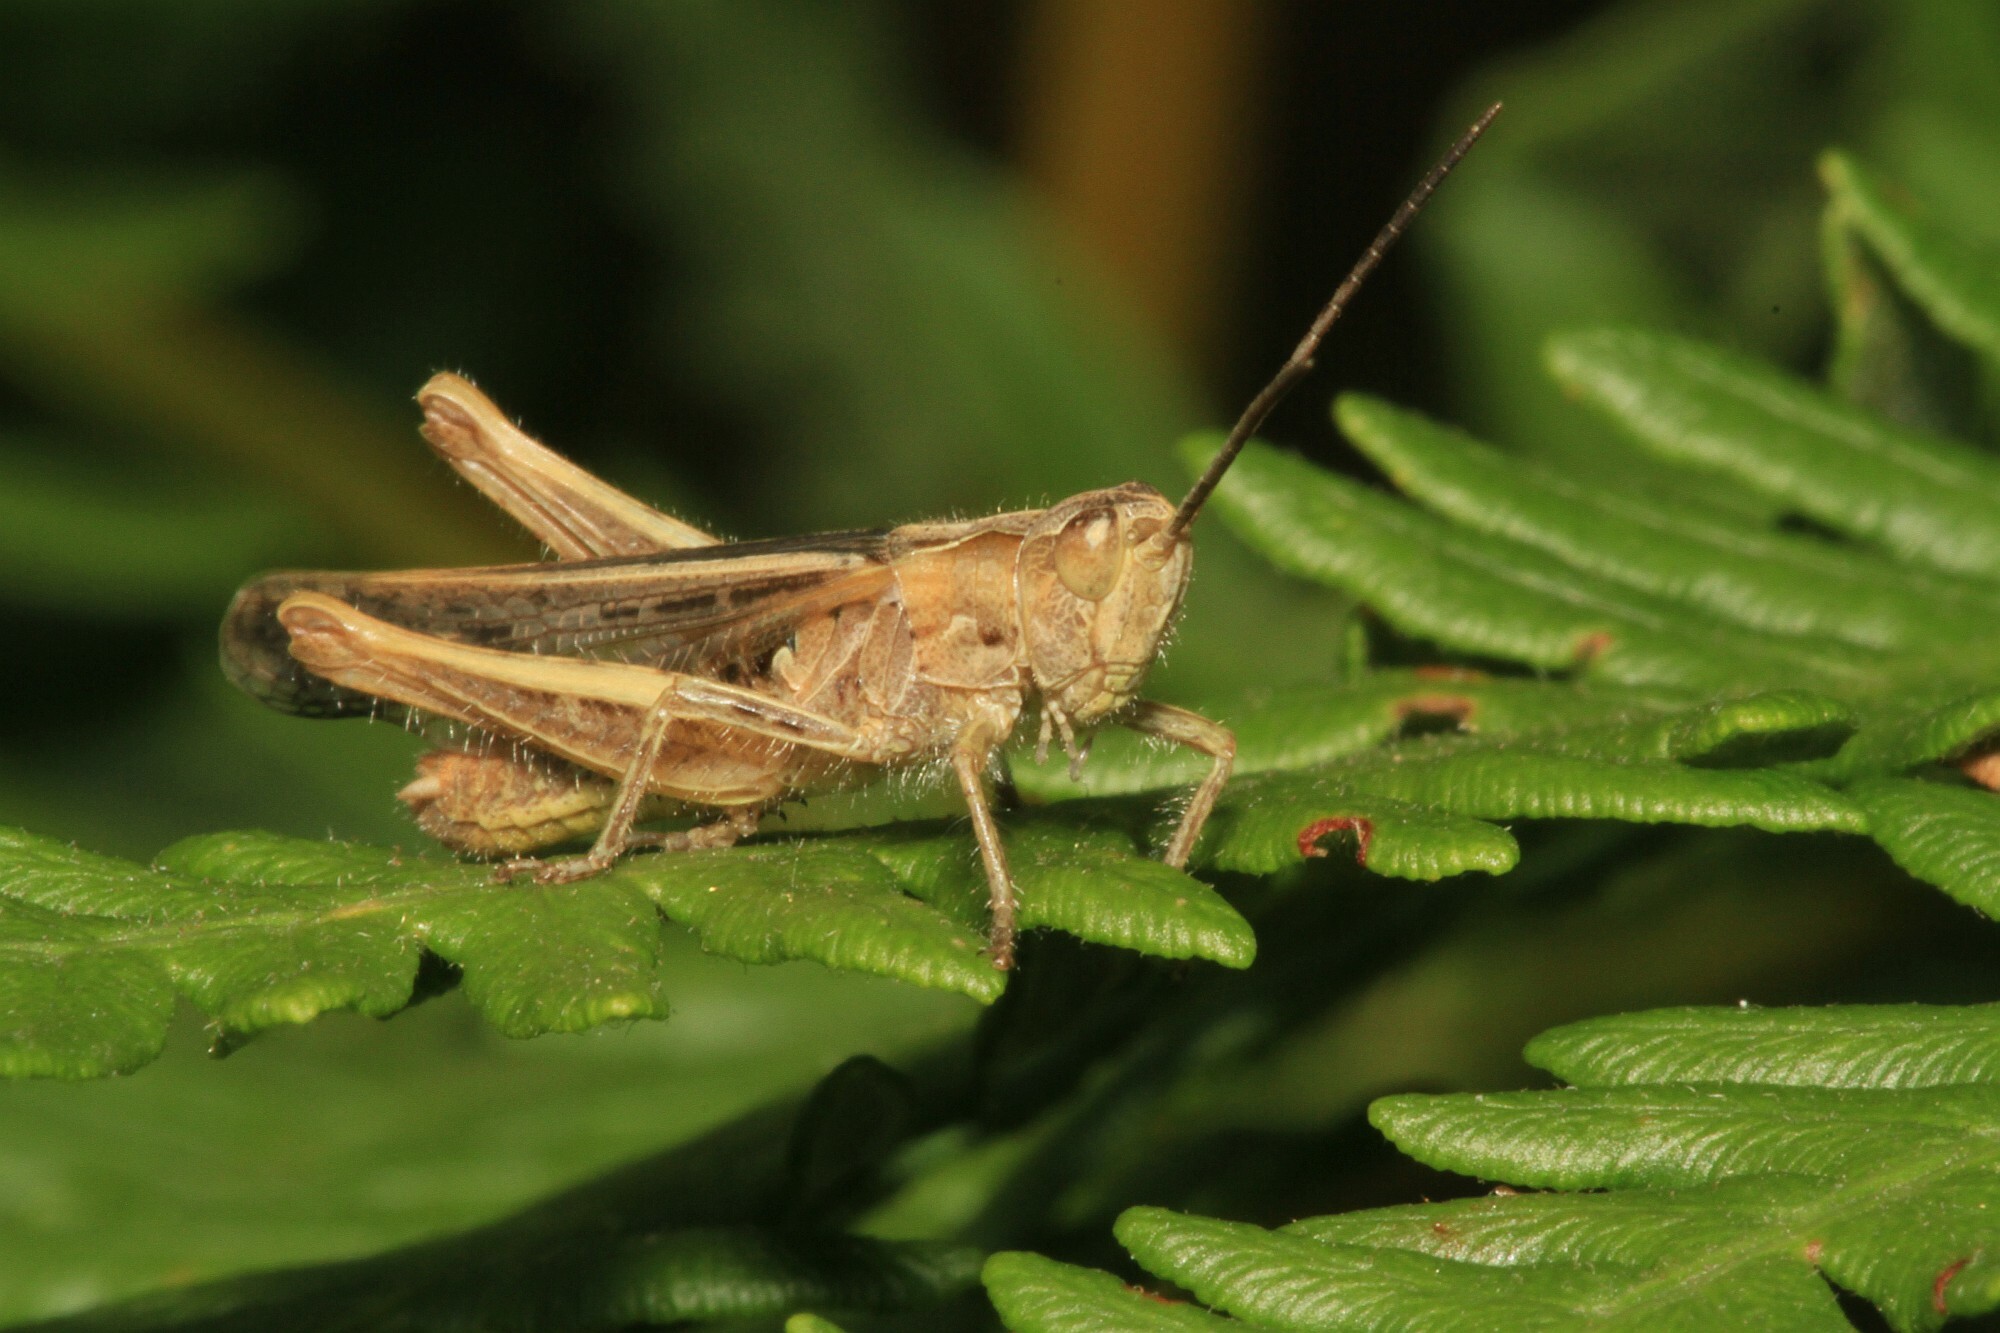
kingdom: Animalia
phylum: Arthropoda
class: Insecta
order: Orthoptera
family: Acrididae
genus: Chorthippus
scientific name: Chorthippus biguttulus
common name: Bow-winged grasshopper
